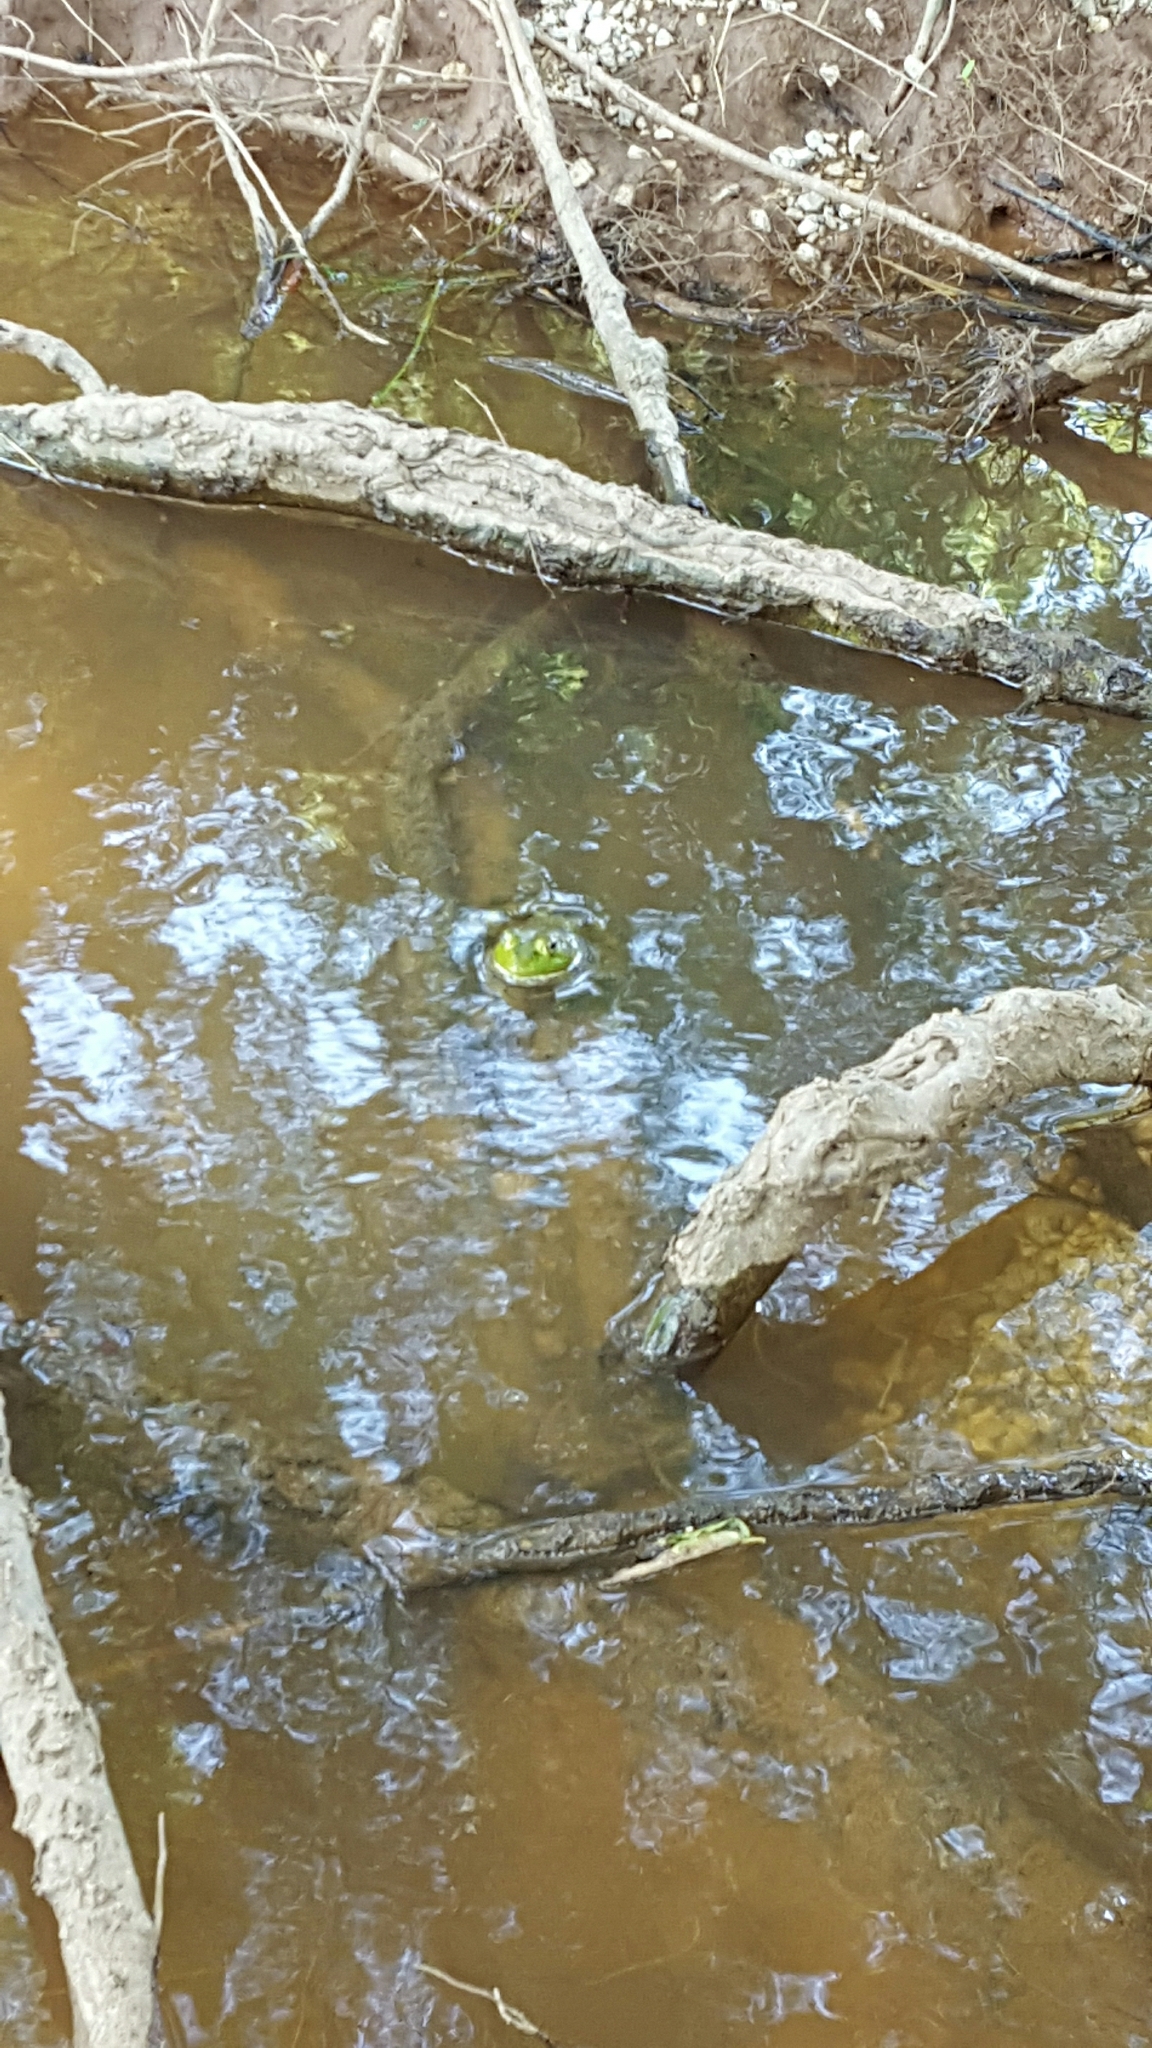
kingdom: Animalia
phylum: Chordata
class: Amphibia
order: Anura
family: Ranidae
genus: Lithobates
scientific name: Lithobates catesbeianus
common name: American bullfrog
